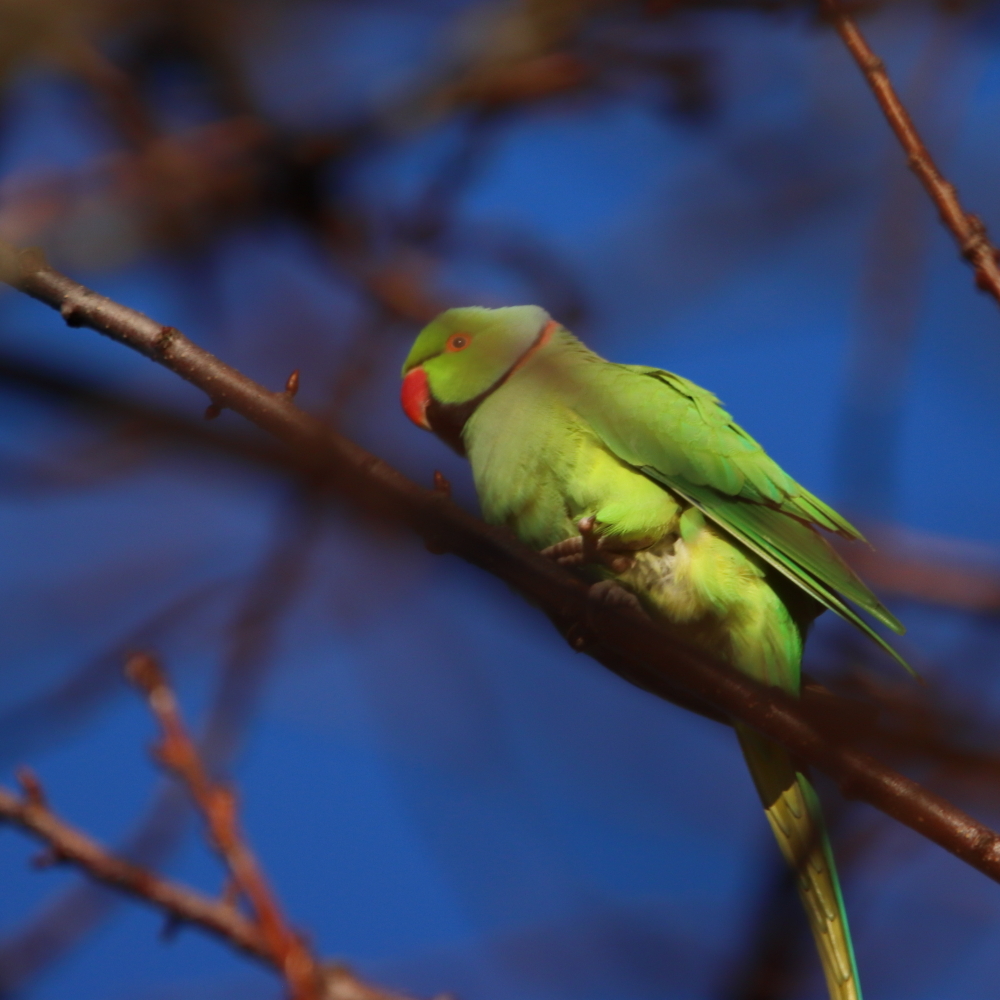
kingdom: Animalia
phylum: Chordata
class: Aves
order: Psittaciformes
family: Psittacidae
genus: Psittacula
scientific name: Psittacula krameri
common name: Rose-ringed parakeet
